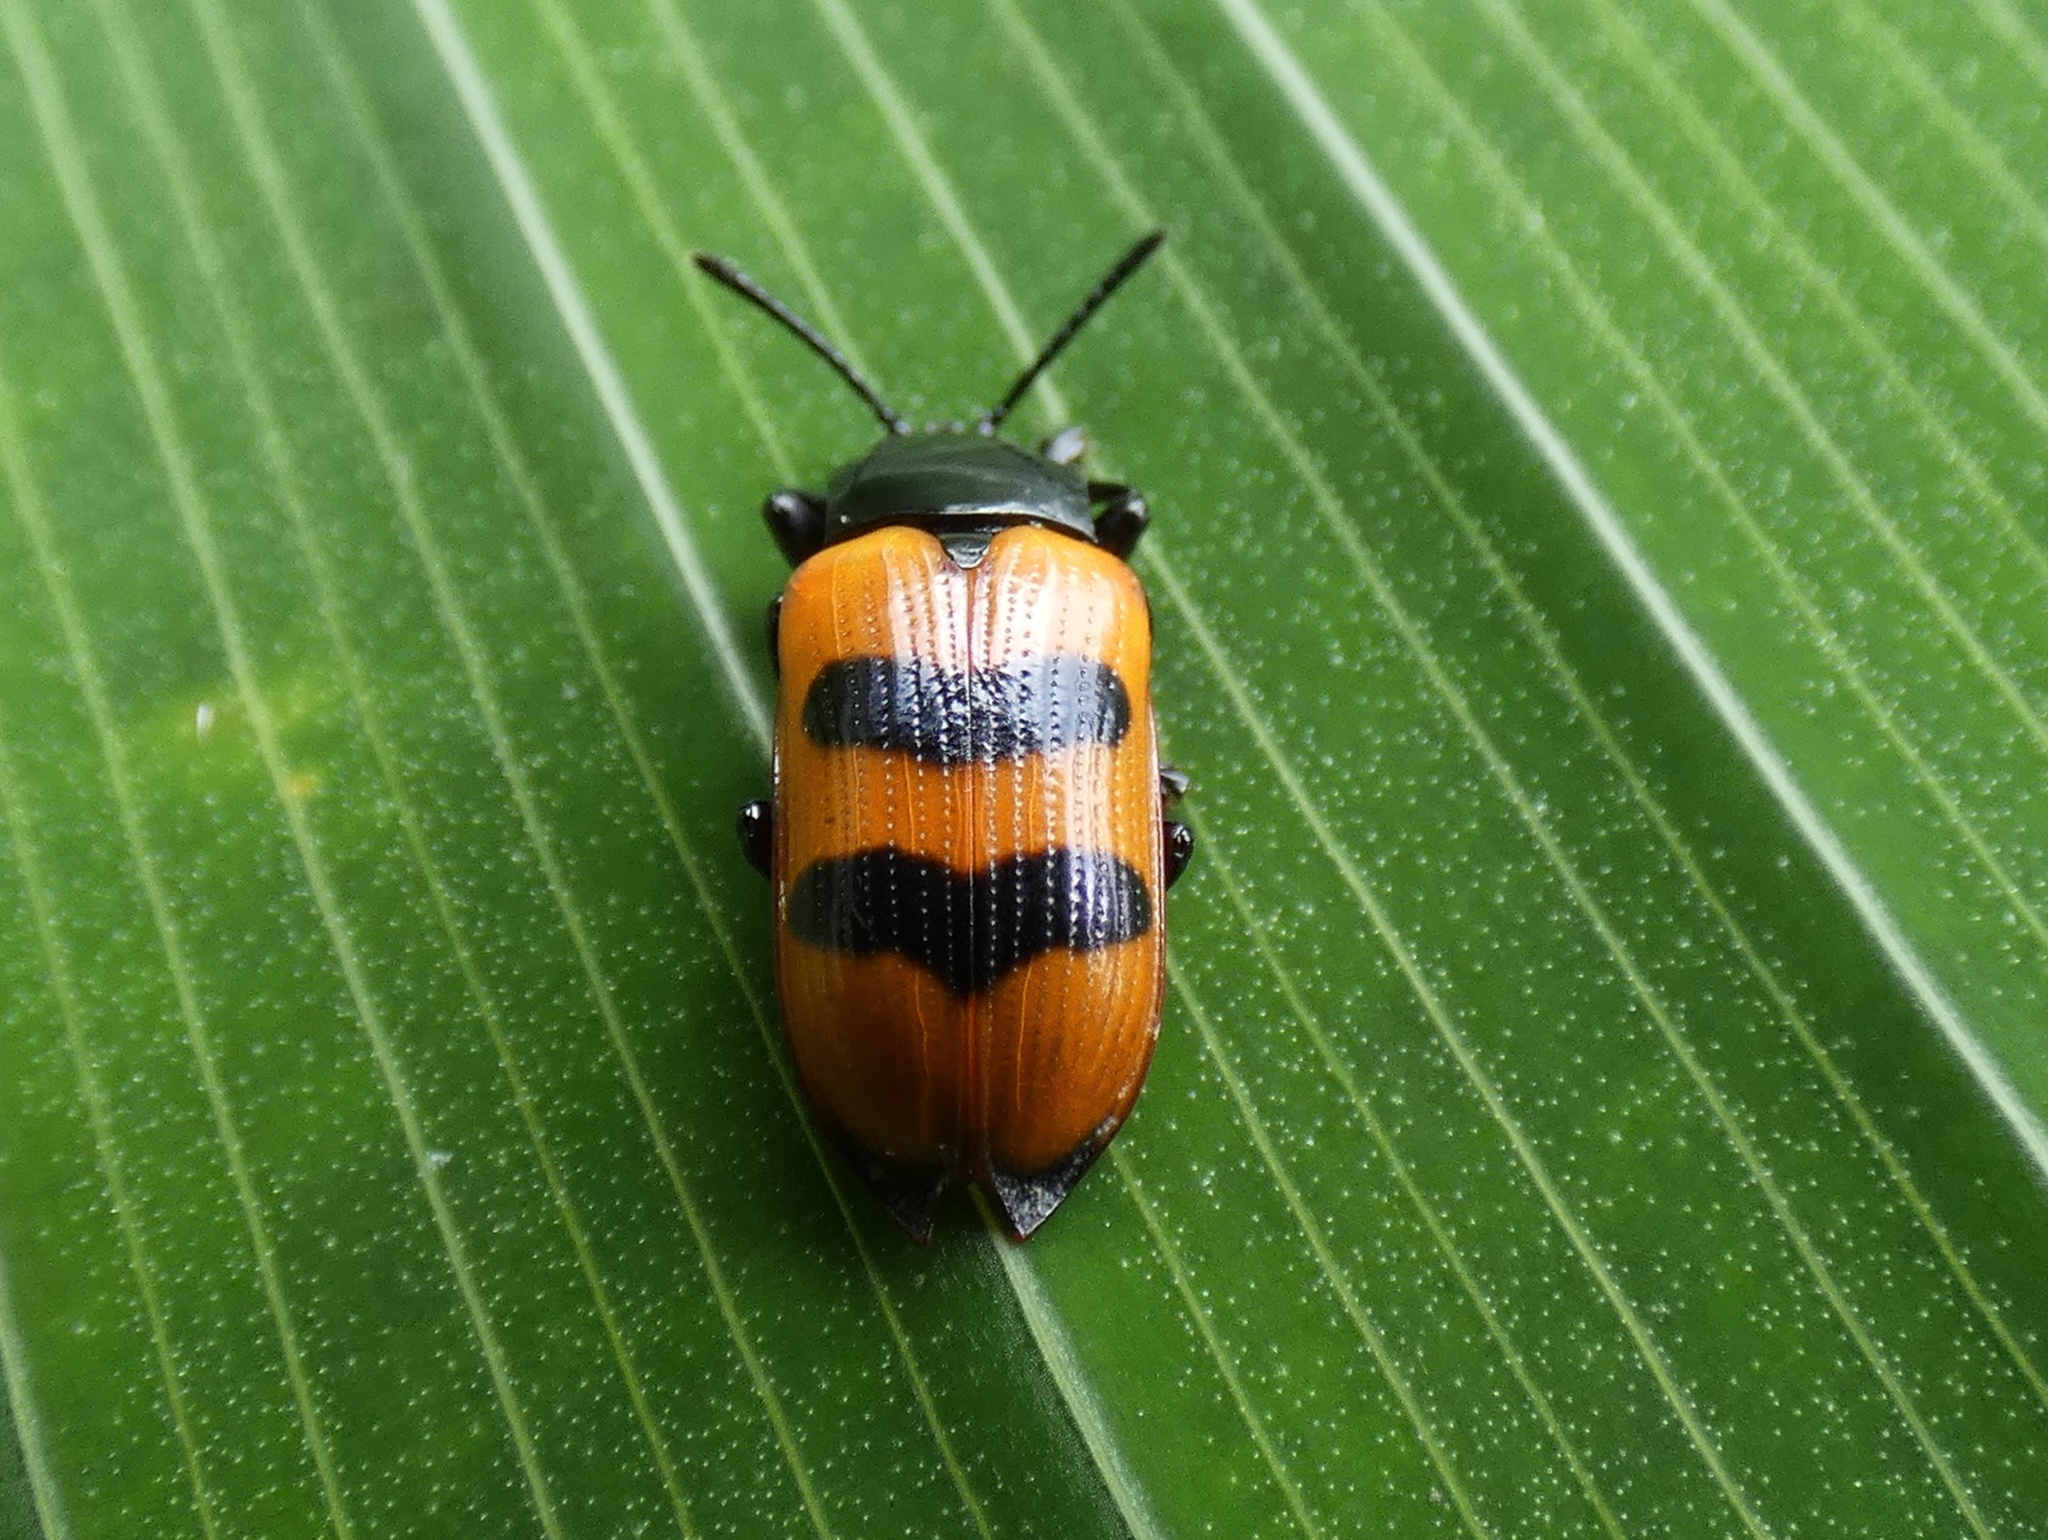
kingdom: Animalia
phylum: Arthropoda
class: Insecta
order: Coleoptera
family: Chrysomelidae
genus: Chelobasis
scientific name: Chelobasis perplexa
